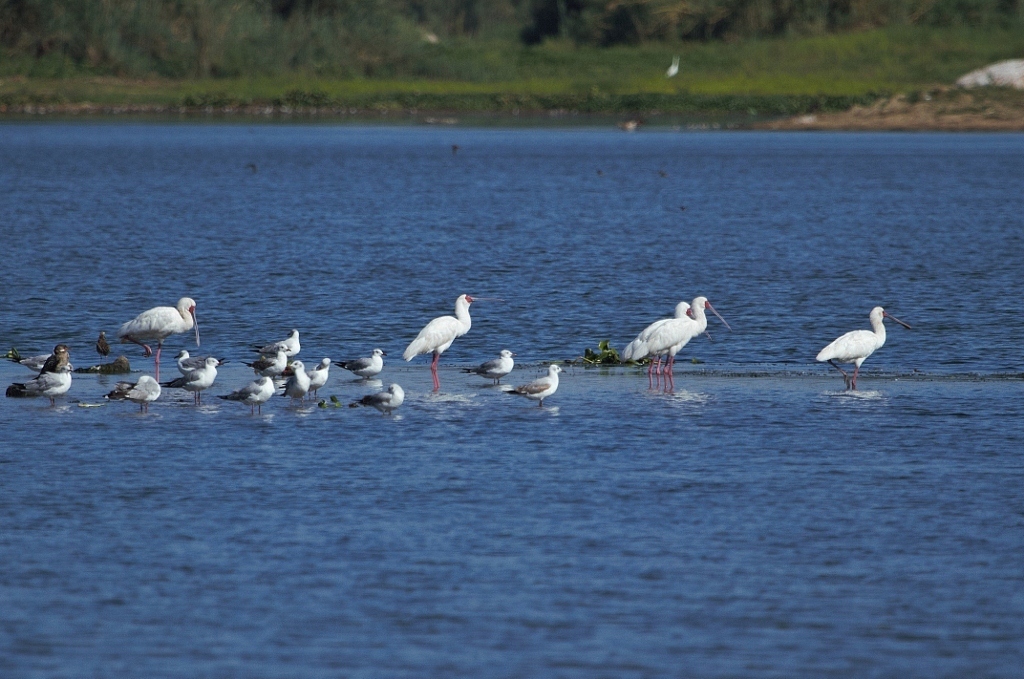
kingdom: Animalia
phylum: Chordata
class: Aves
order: Pelecaniformes
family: Threskiornithidae
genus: Platalea
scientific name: Platalea alba
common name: African spoonbill
